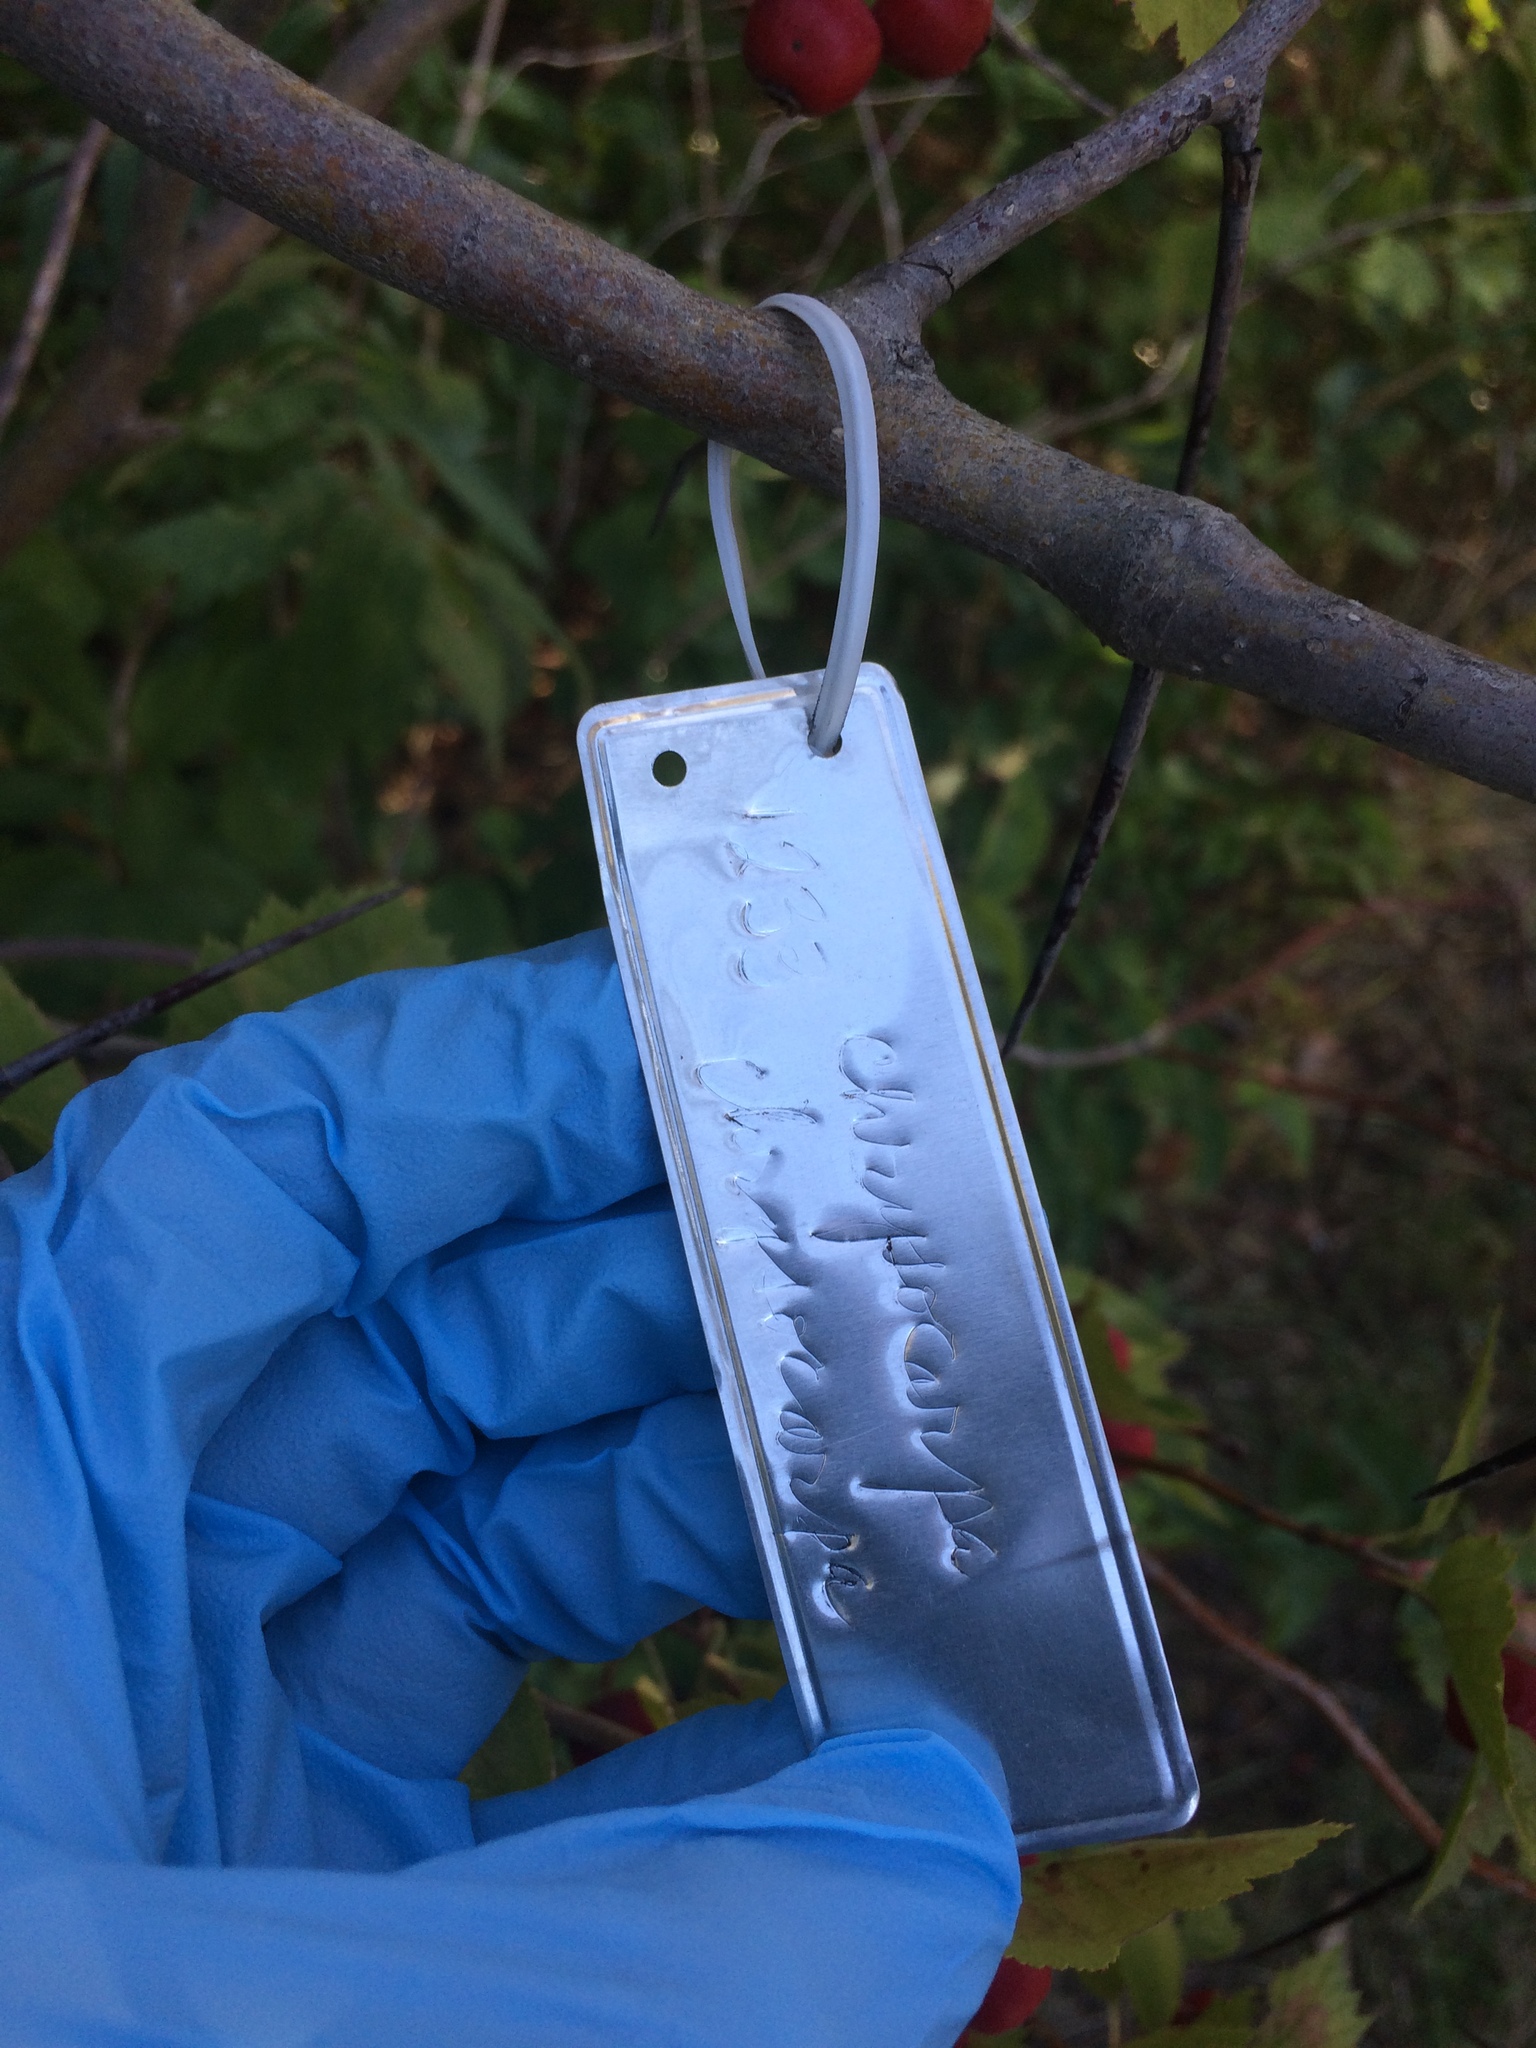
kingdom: Plantae
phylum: Tracheophyta
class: Magnoliopsida
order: Rosales
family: Rosaceae
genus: Crataegus
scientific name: Crataegus chrysocarpa
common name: Fire-berry hawthorn
